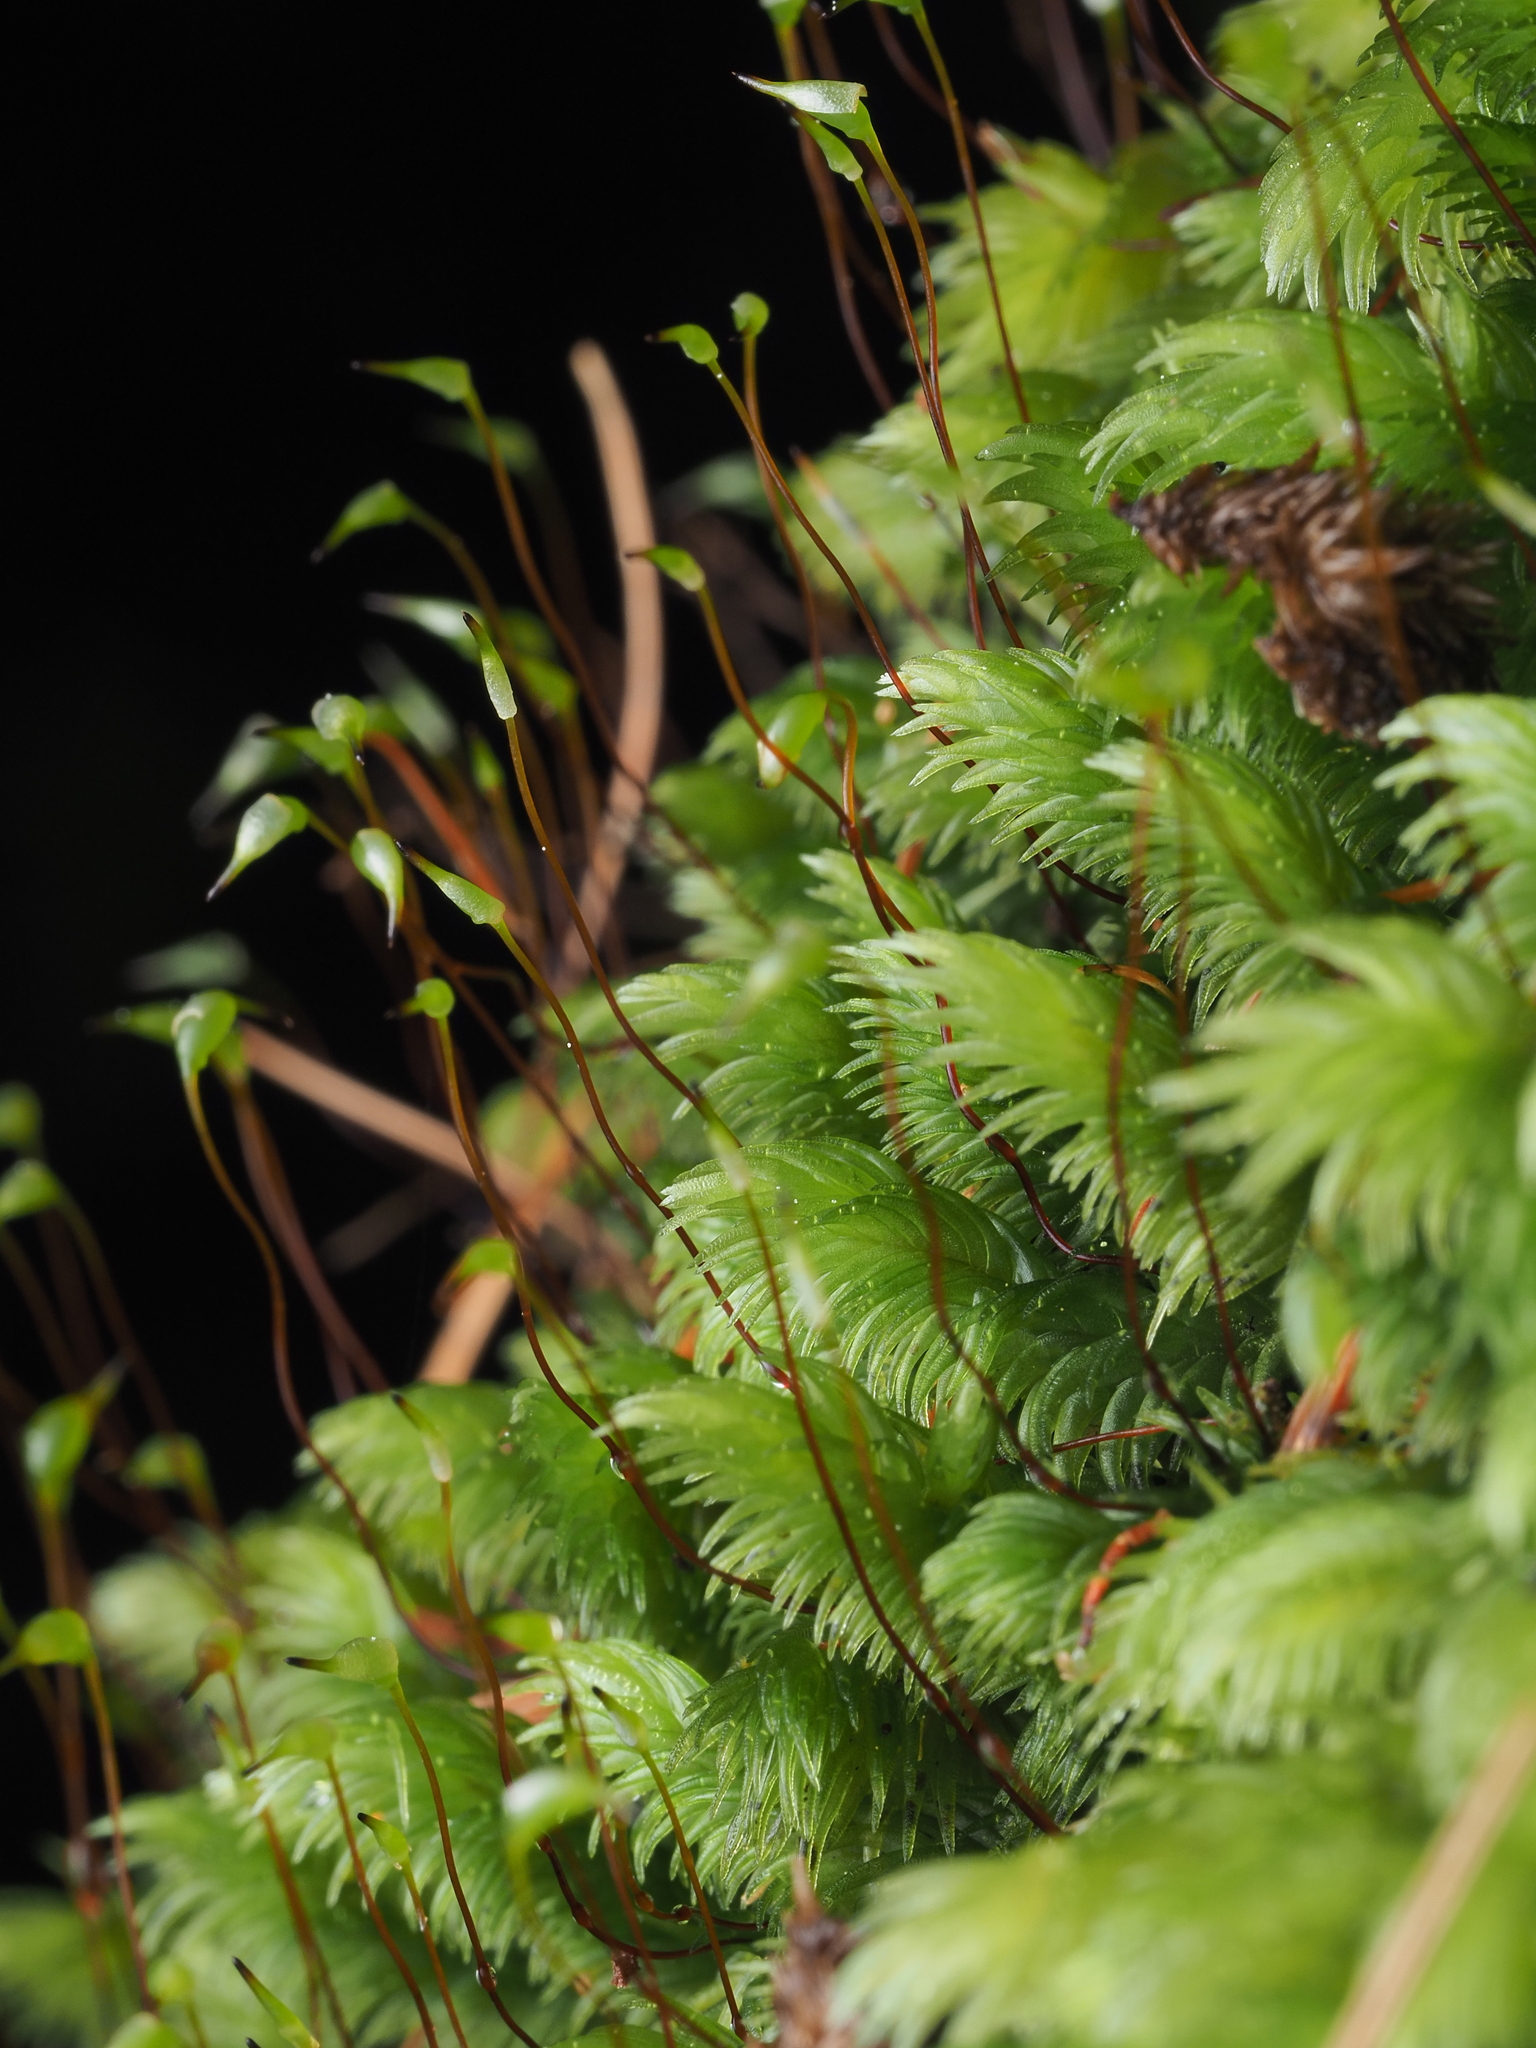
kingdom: Plantae
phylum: Bryophyta
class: Bryopsida
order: Dicranales
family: Leucobryaceae
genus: Leucobryum
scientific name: Leucobryum javense
